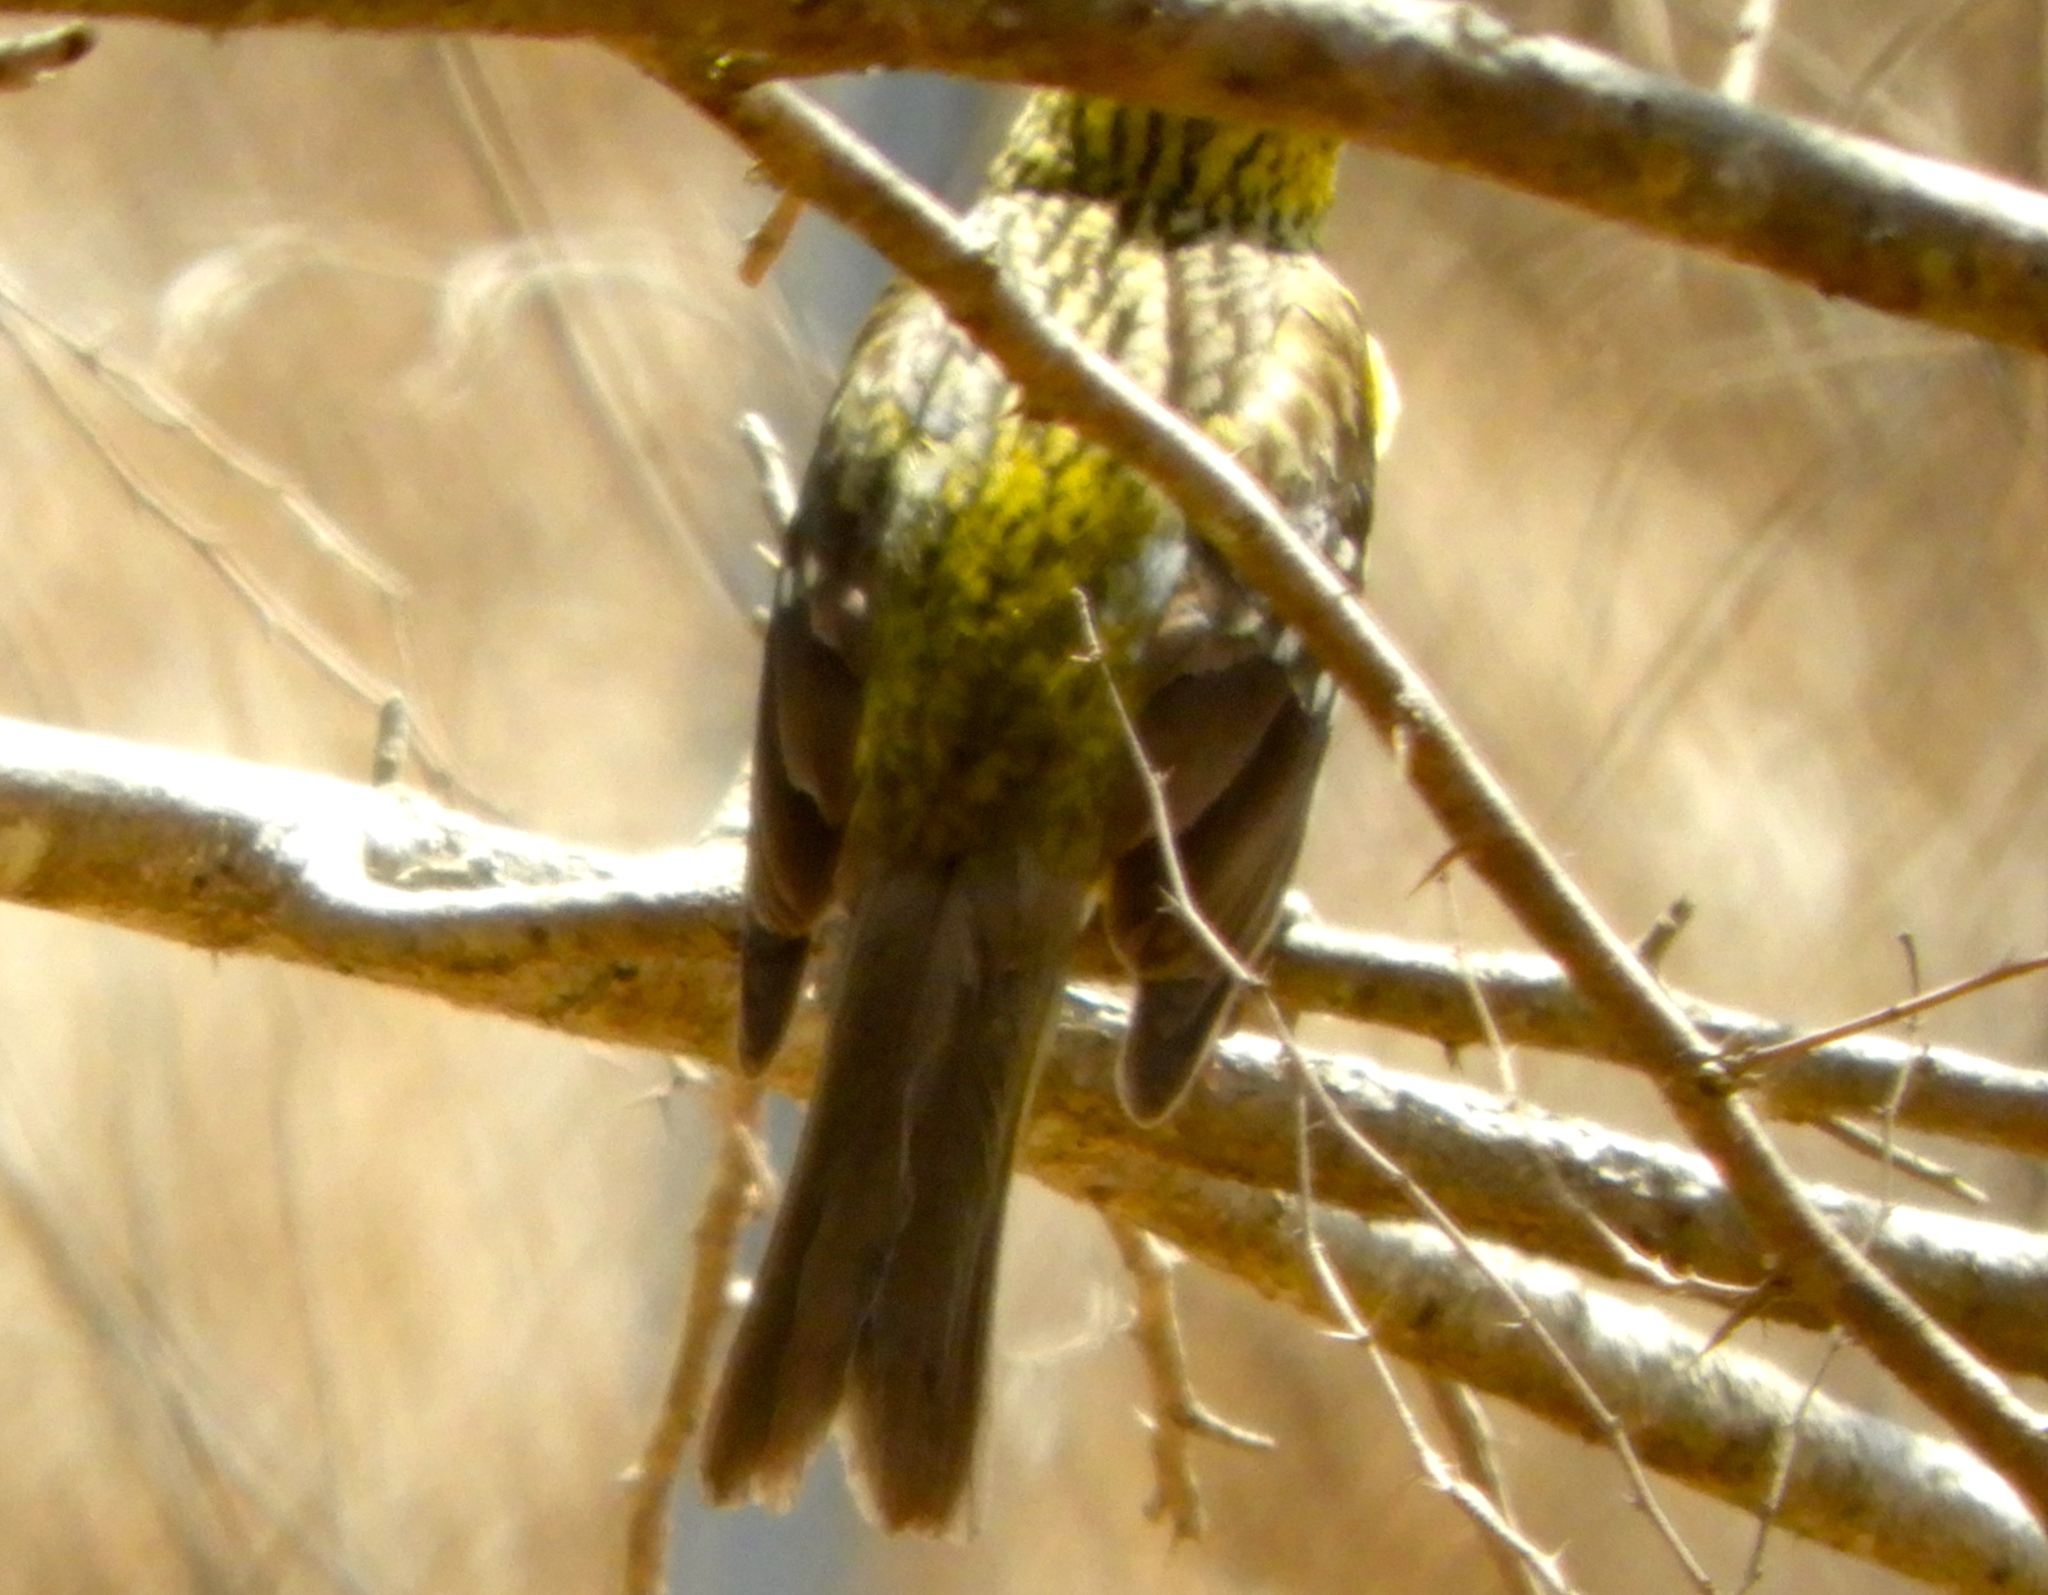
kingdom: Animalia
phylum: Chordata
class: Aves
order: Passeriformes
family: Cardinalidae
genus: Pheucticus
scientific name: Pheucticus chrysopeplus
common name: Yellow grosbeak
